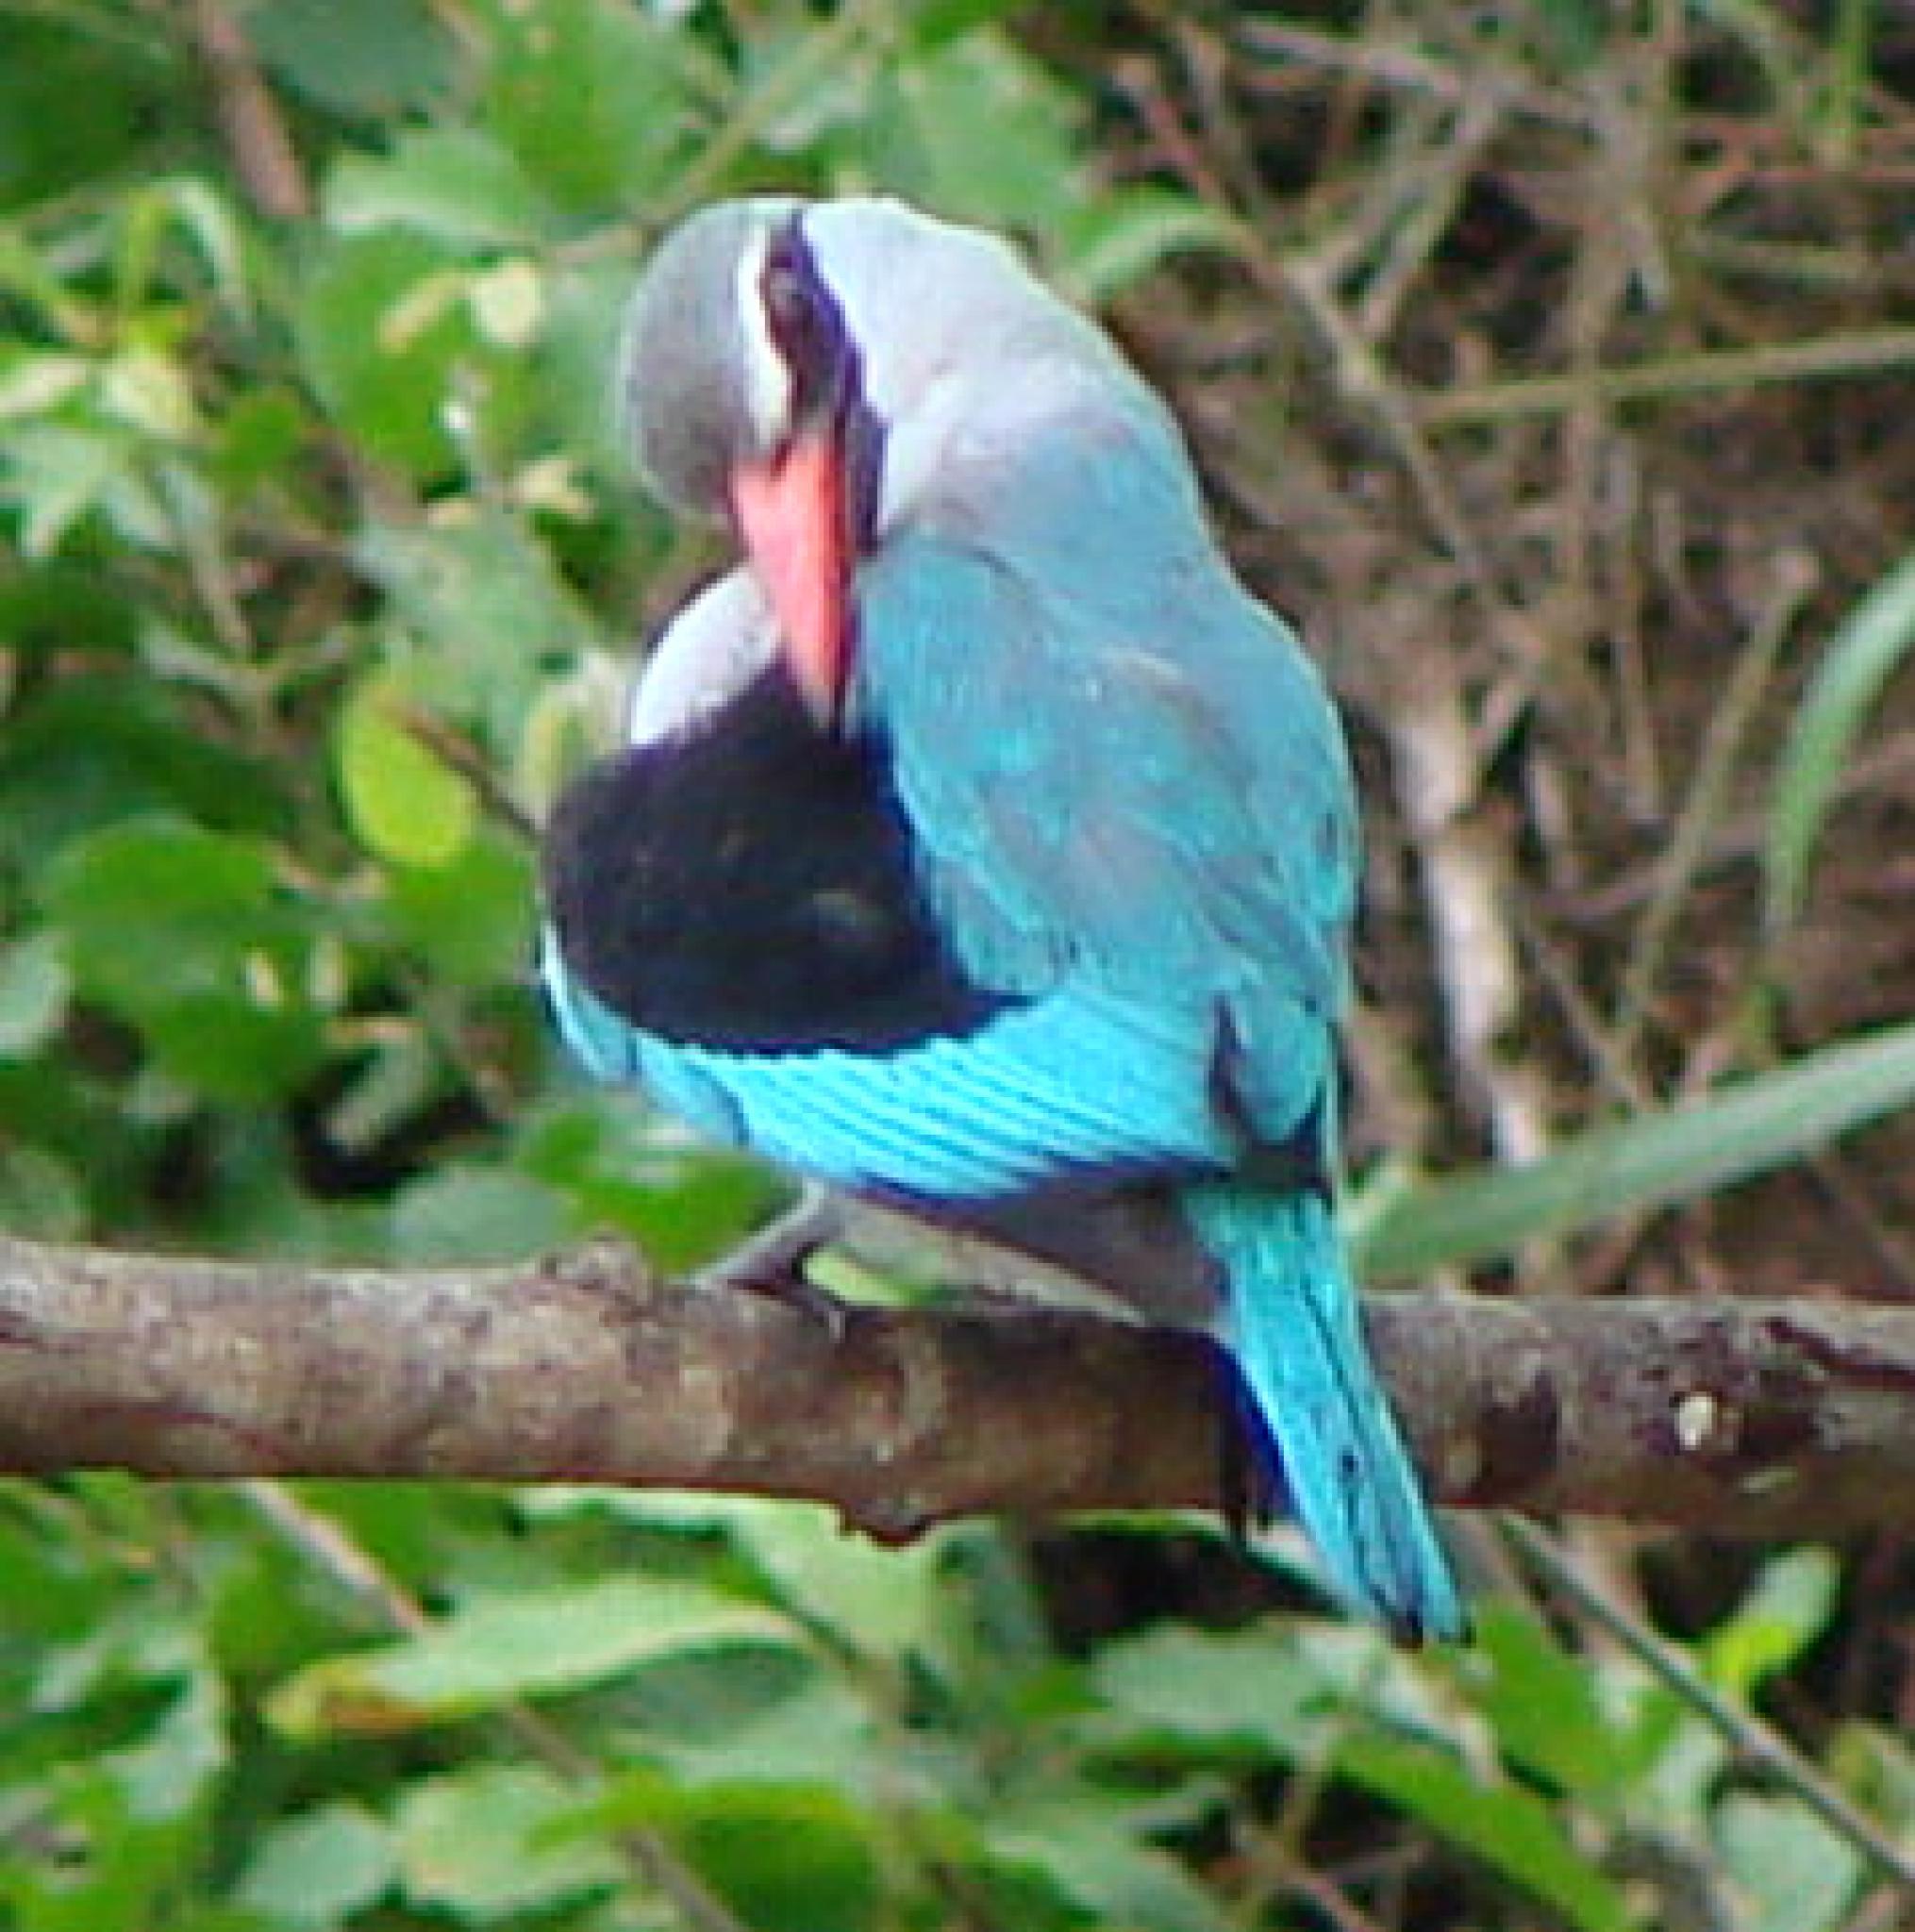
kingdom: Animalia
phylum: Chordata
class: Aves
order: Coraciiformes
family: Alcedinidae
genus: Halcyon
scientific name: Halcyon senegalensis
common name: Woodland kingfisher
